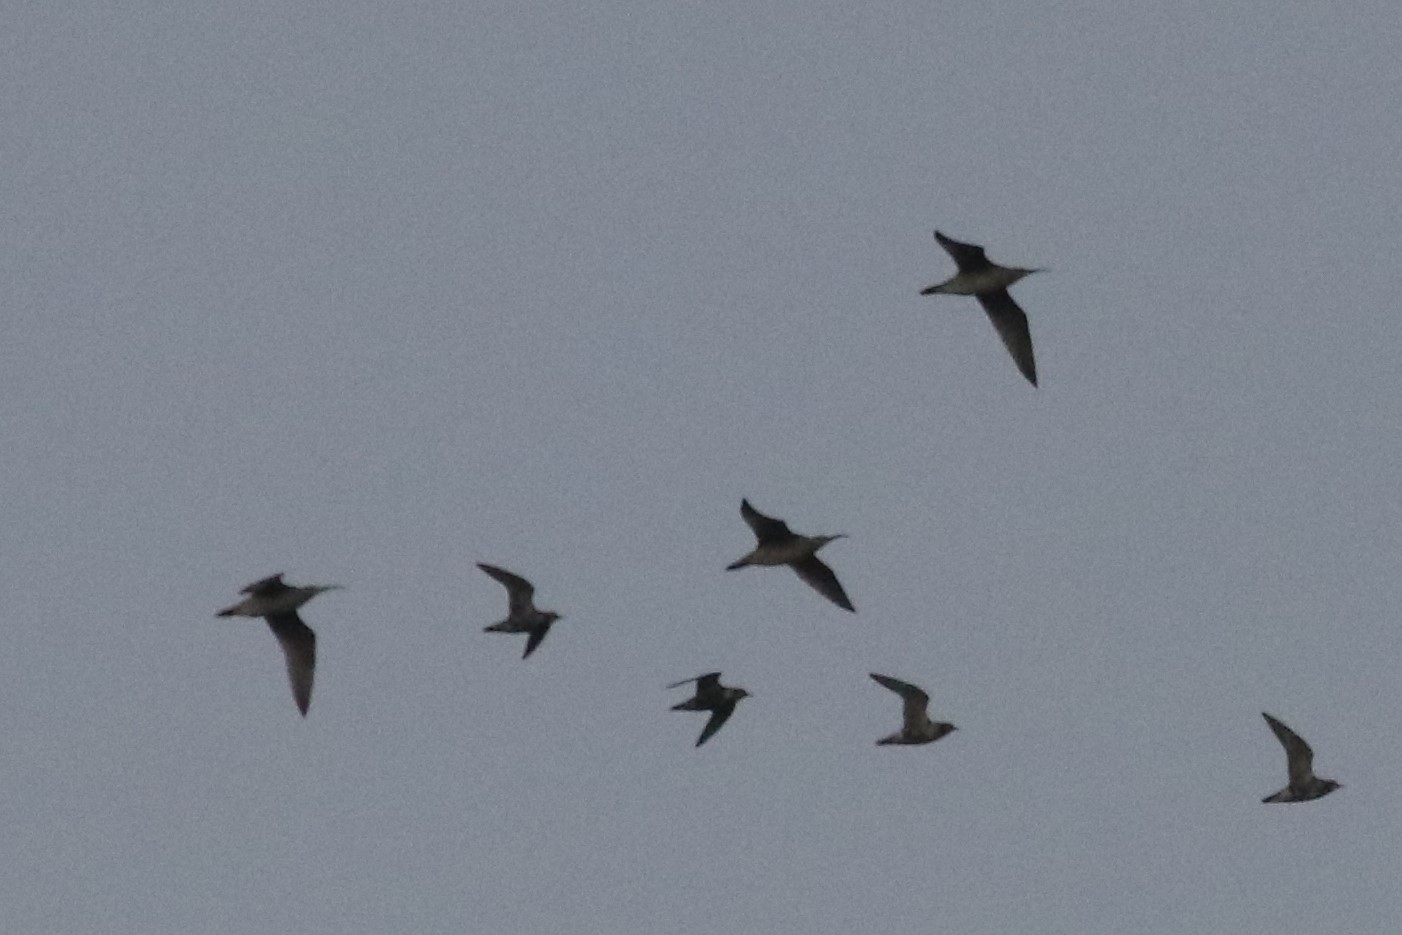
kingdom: Animalia
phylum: Chordata
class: Aves
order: Charadriiformes
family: Scolopacidae
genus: Numenius
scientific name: Numenius phaeopus
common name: Whimbrel
